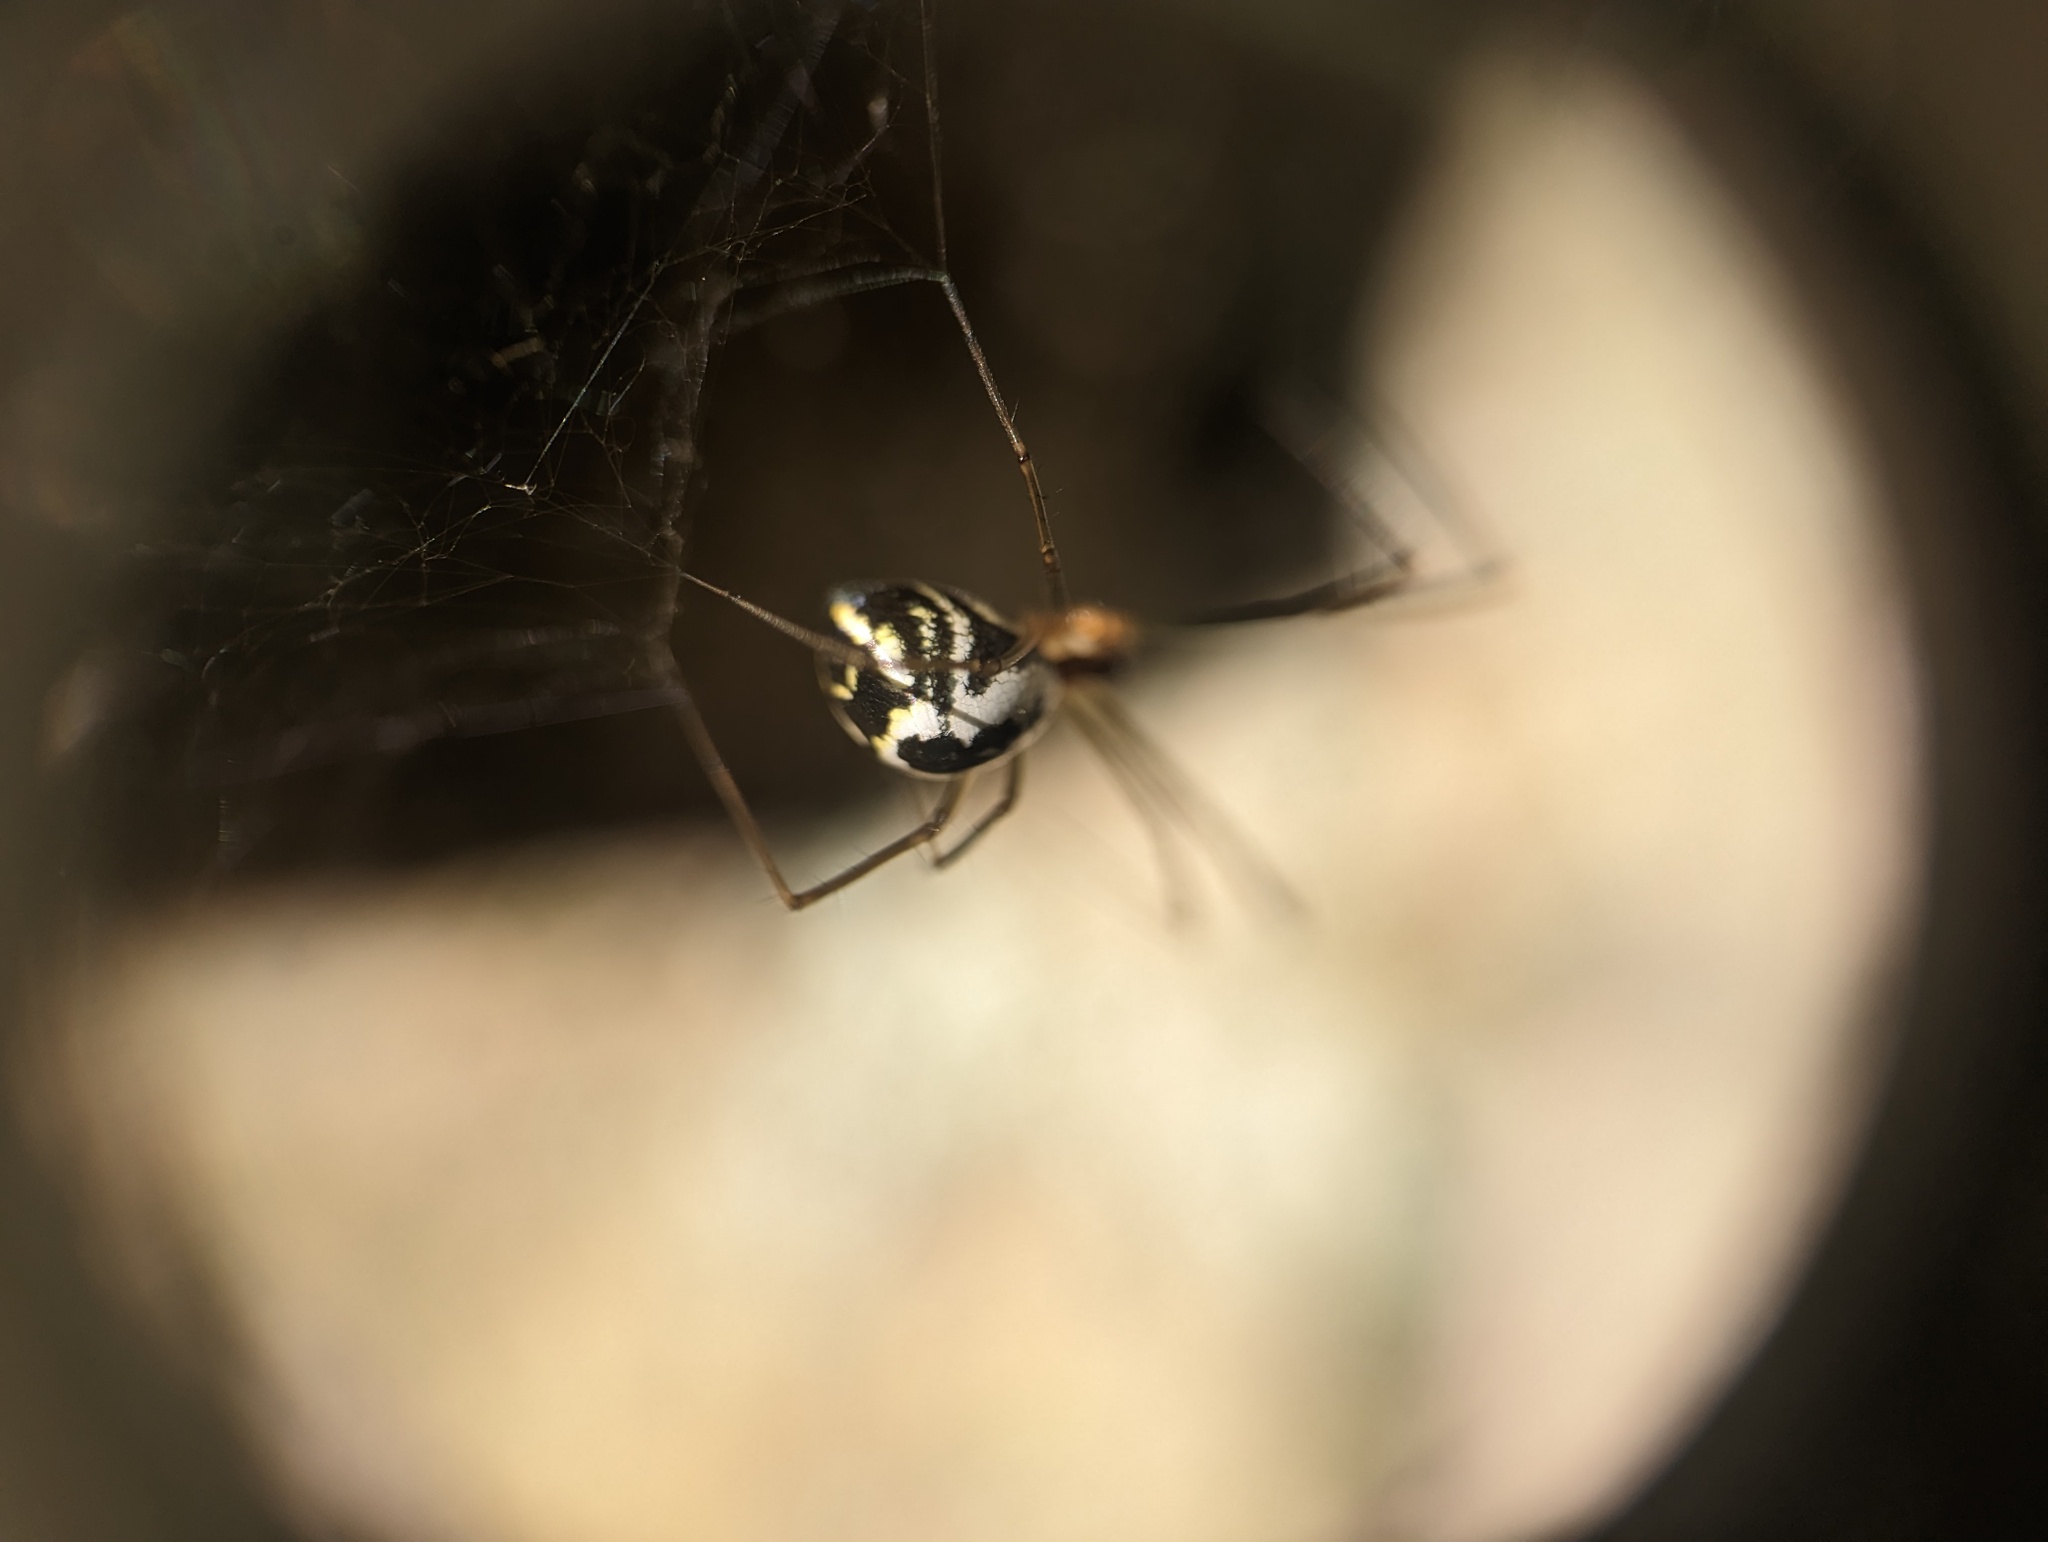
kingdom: Animalia
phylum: Arthropoda
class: Arachnida
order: Araneae
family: Linyphiidae
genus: Neriene
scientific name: Neriene radiata
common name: Filmy dome spider
